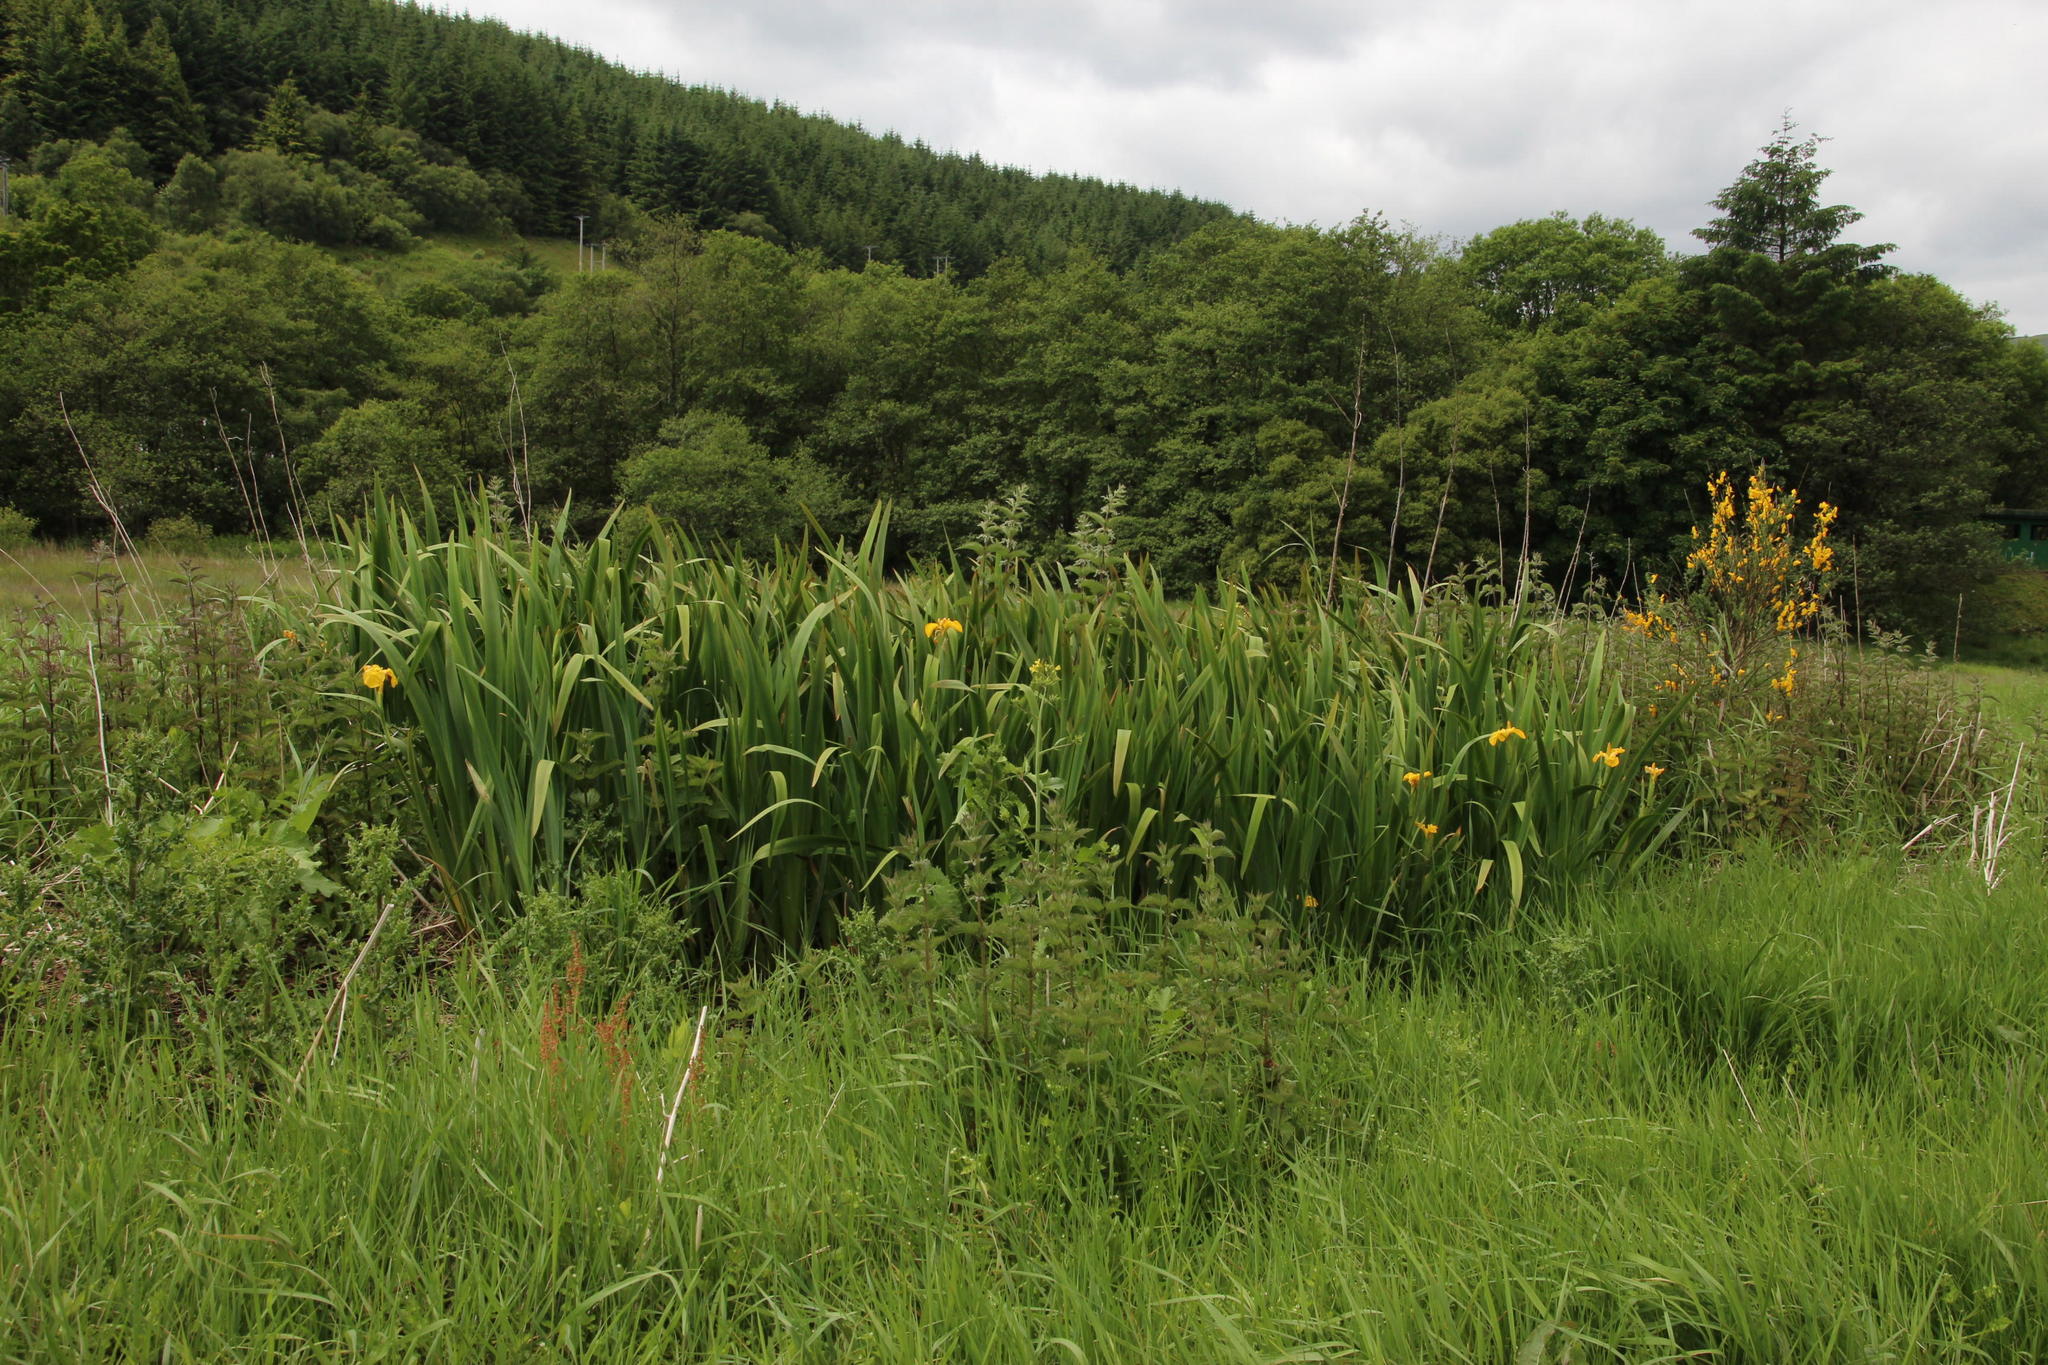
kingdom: Plantae
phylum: Tracheophyta
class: Liliopsida
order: Asparagales
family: Iridaceae
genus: Iris
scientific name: Iris pseudacorus
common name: Yellow flag
